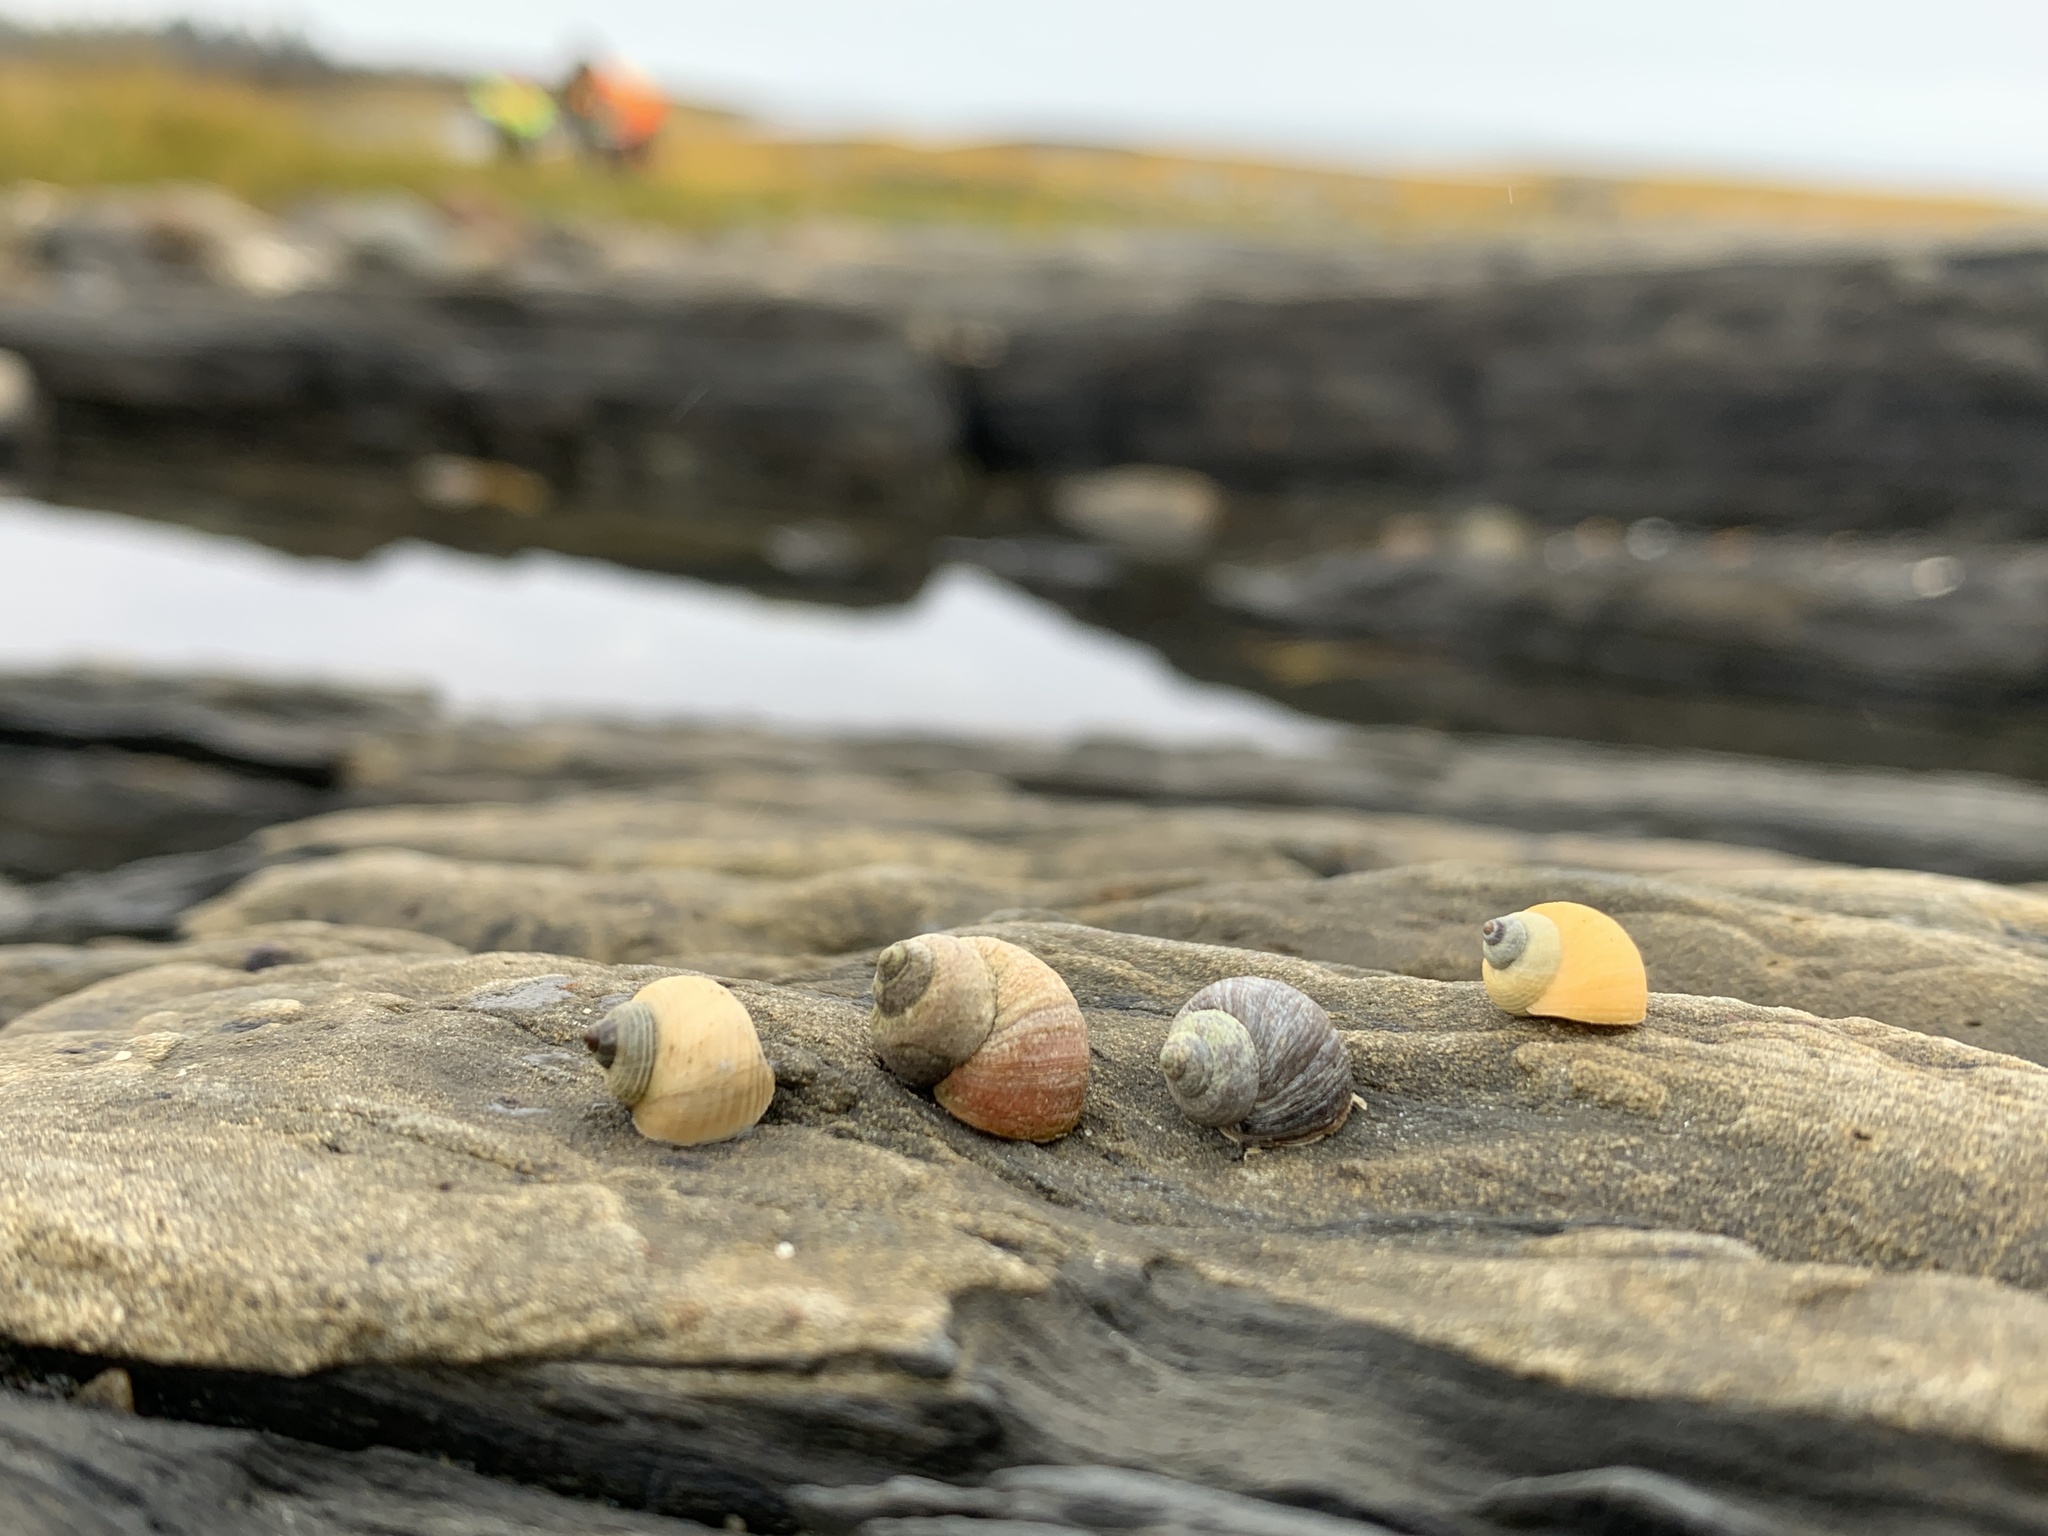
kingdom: Animalia
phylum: Mollusca
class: Gastropoda
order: Littorinimorpha
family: Littorinidae
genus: Littorina
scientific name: Littorina saxatilis
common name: Black-lined periwinkle
